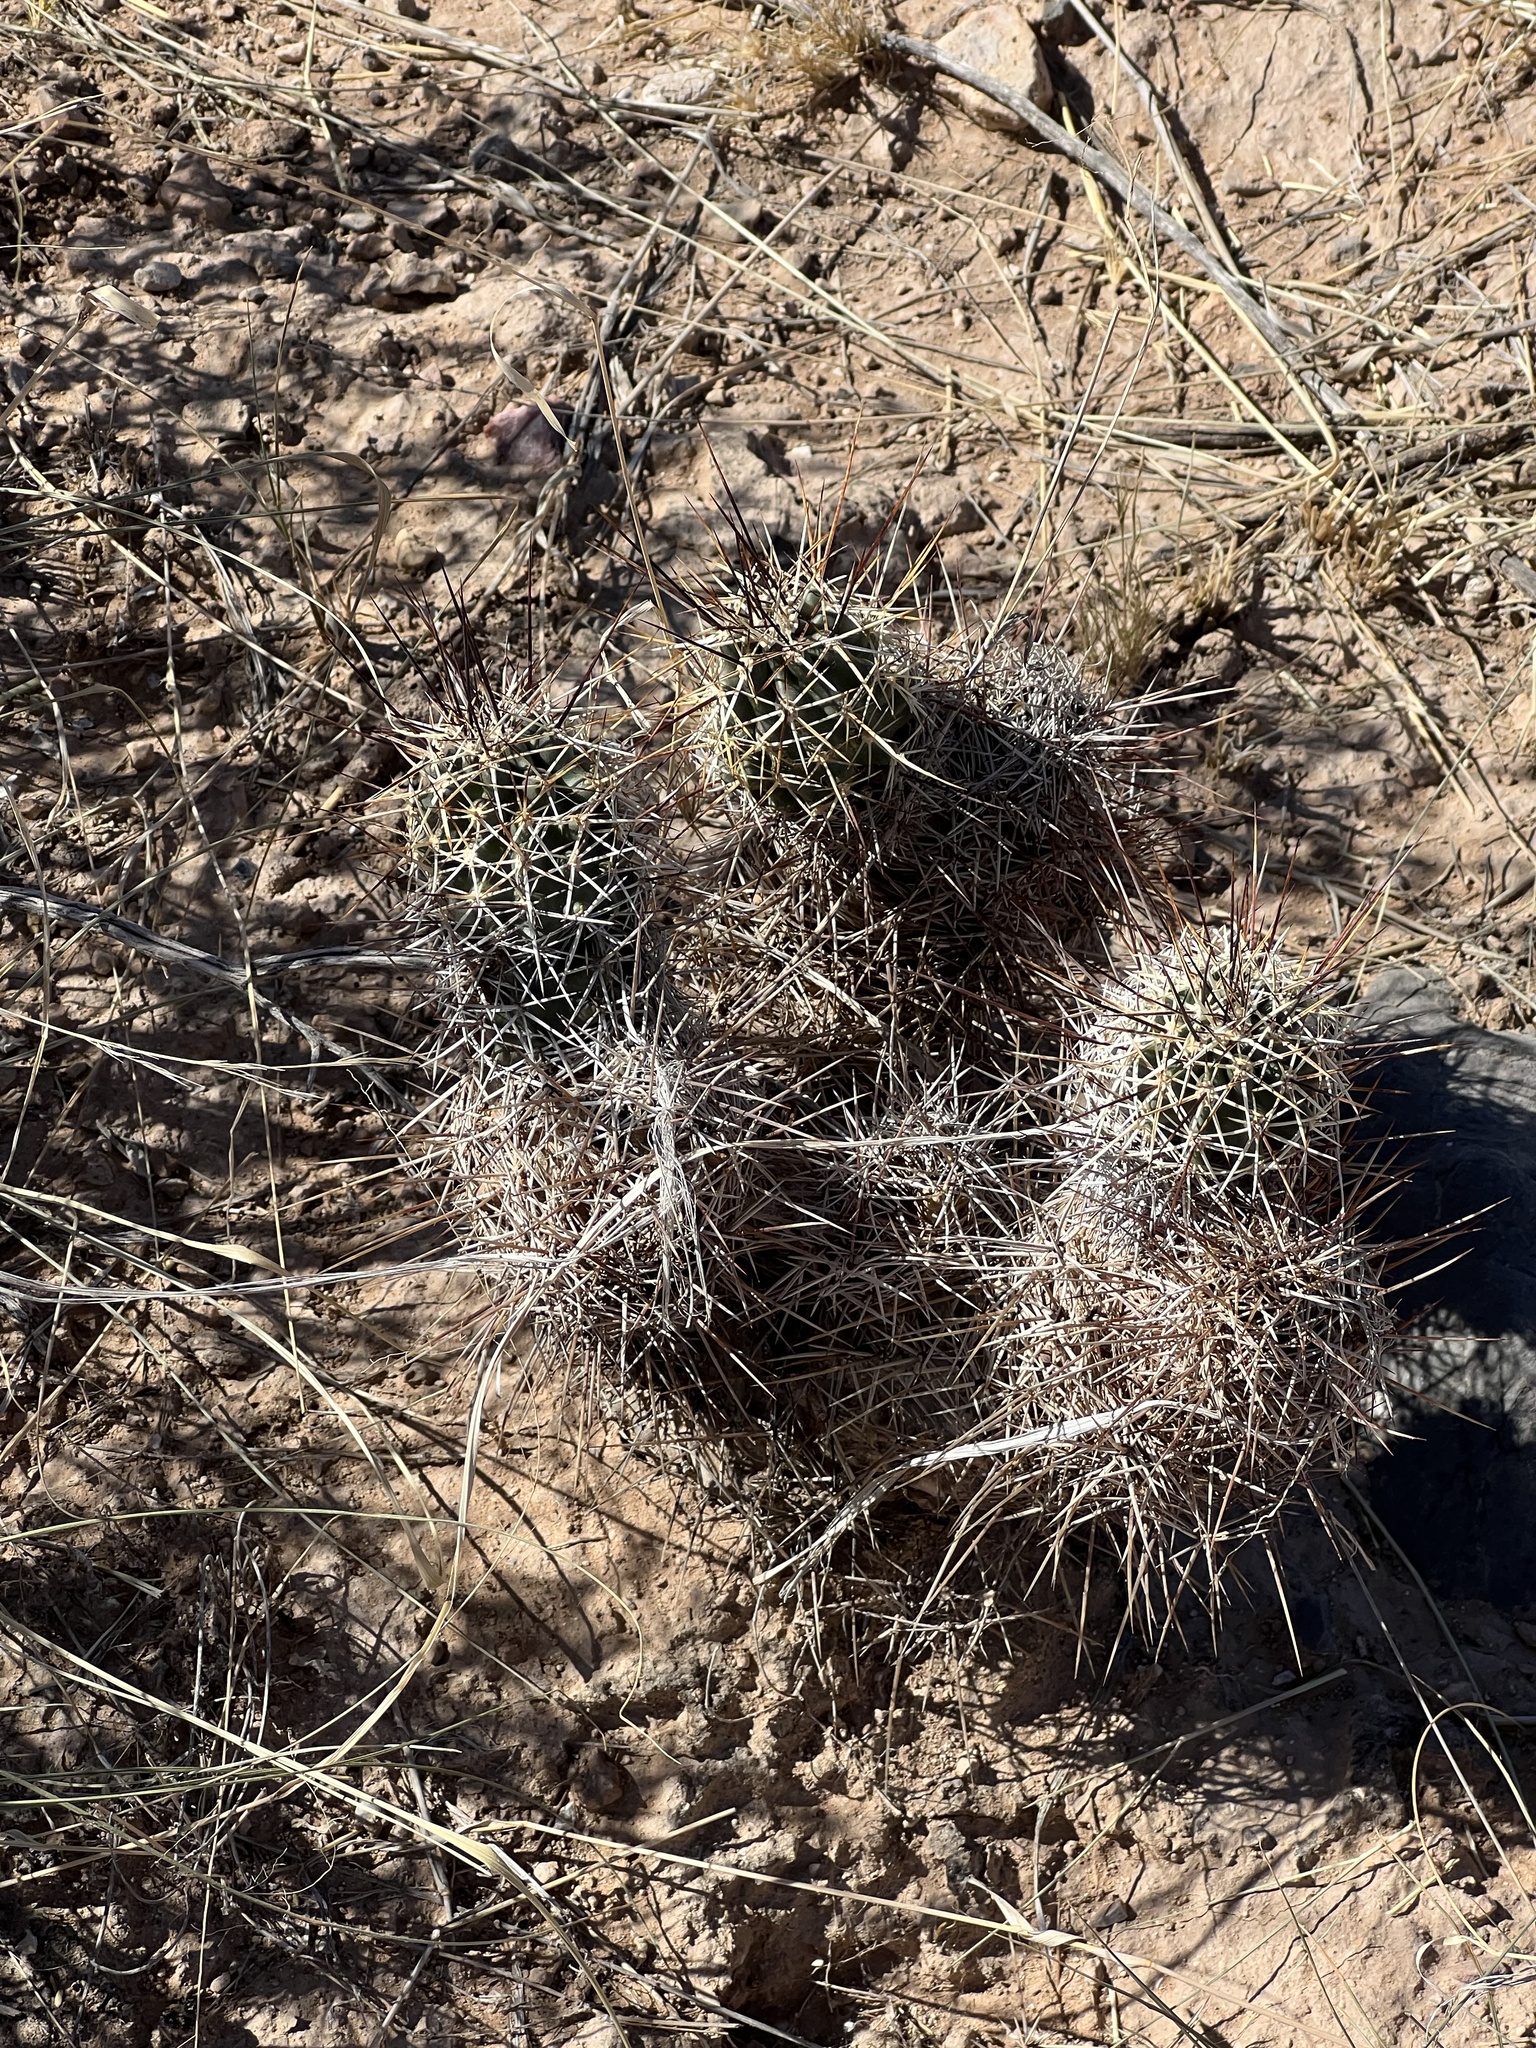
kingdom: Plantae
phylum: Tracheophyta
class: Magnoliopsida
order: Caryophyllales
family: Cactaceae
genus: Echinocereus
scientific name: Echinocereus fendleri
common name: Fendler's hedgehog cactus
